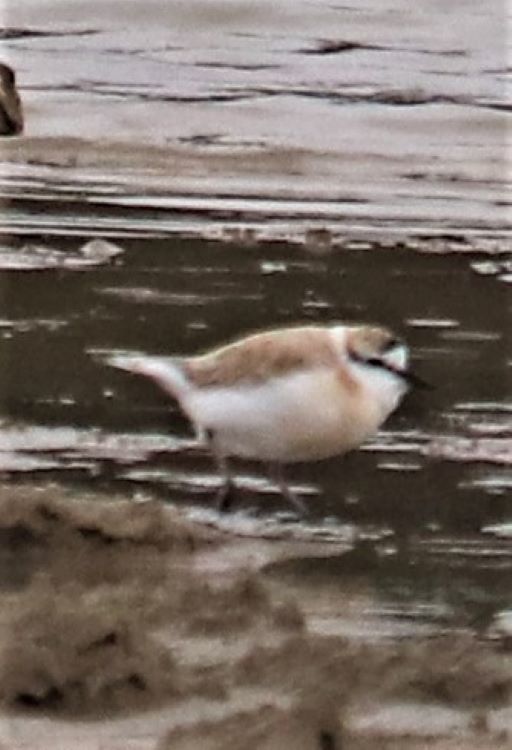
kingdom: Animalia
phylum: Chordata
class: Aves
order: Charadriiformes
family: Charadriidae
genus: Anarhynchus
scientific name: Anarhynchus
